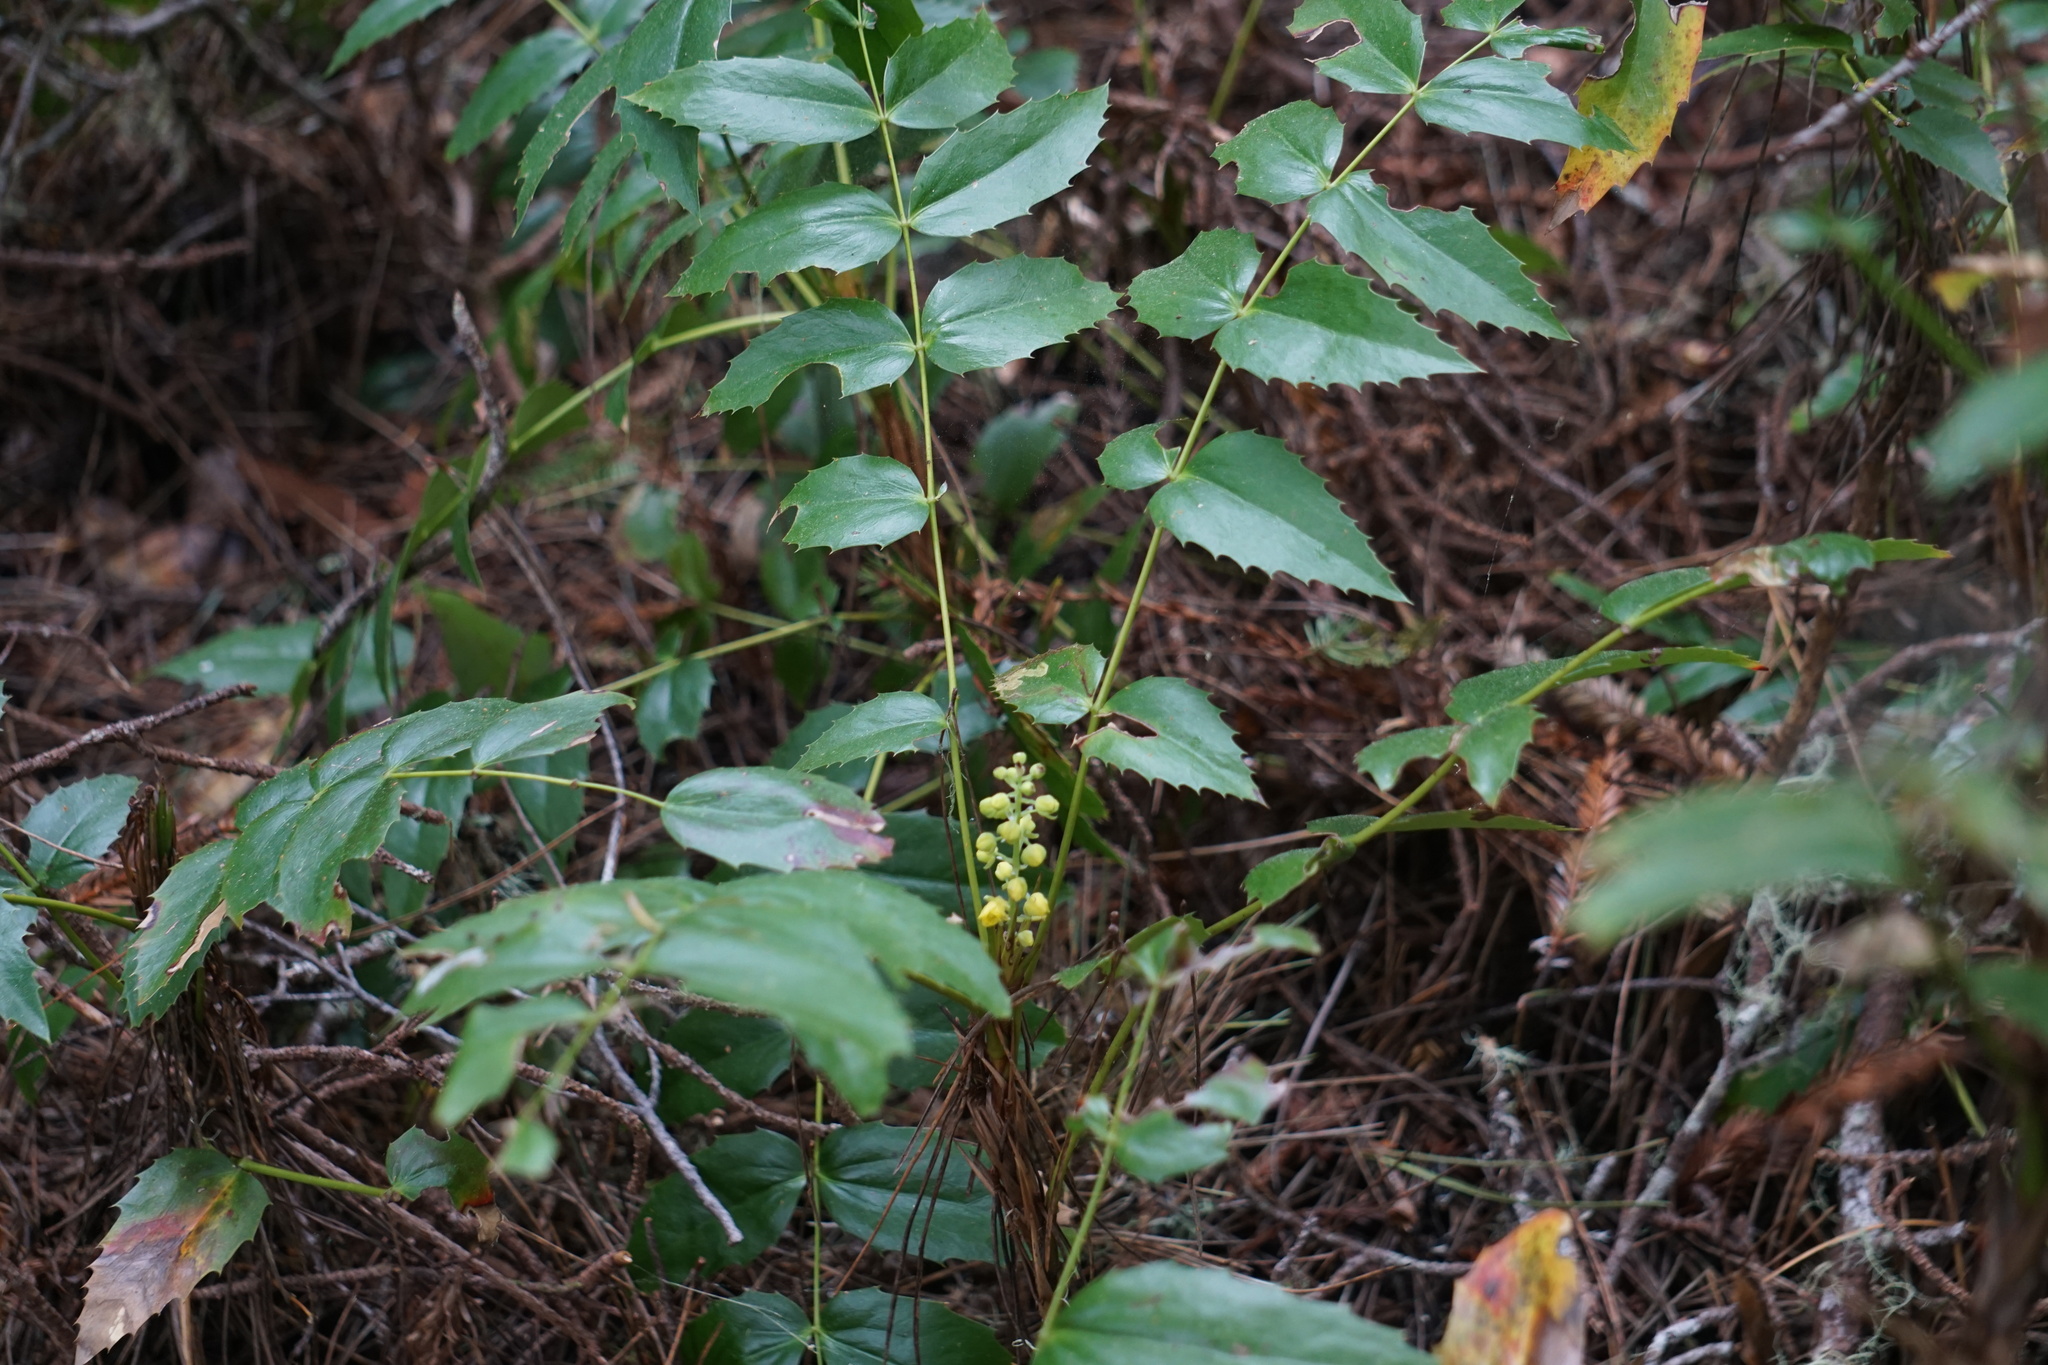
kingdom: Plantae
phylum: Tracheophyta
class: Magnoliopsida
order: Ranunculales
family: Berberidaceae
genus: Mahonia
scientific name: Mahonia nervosa
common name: Cascade oregon-grape
